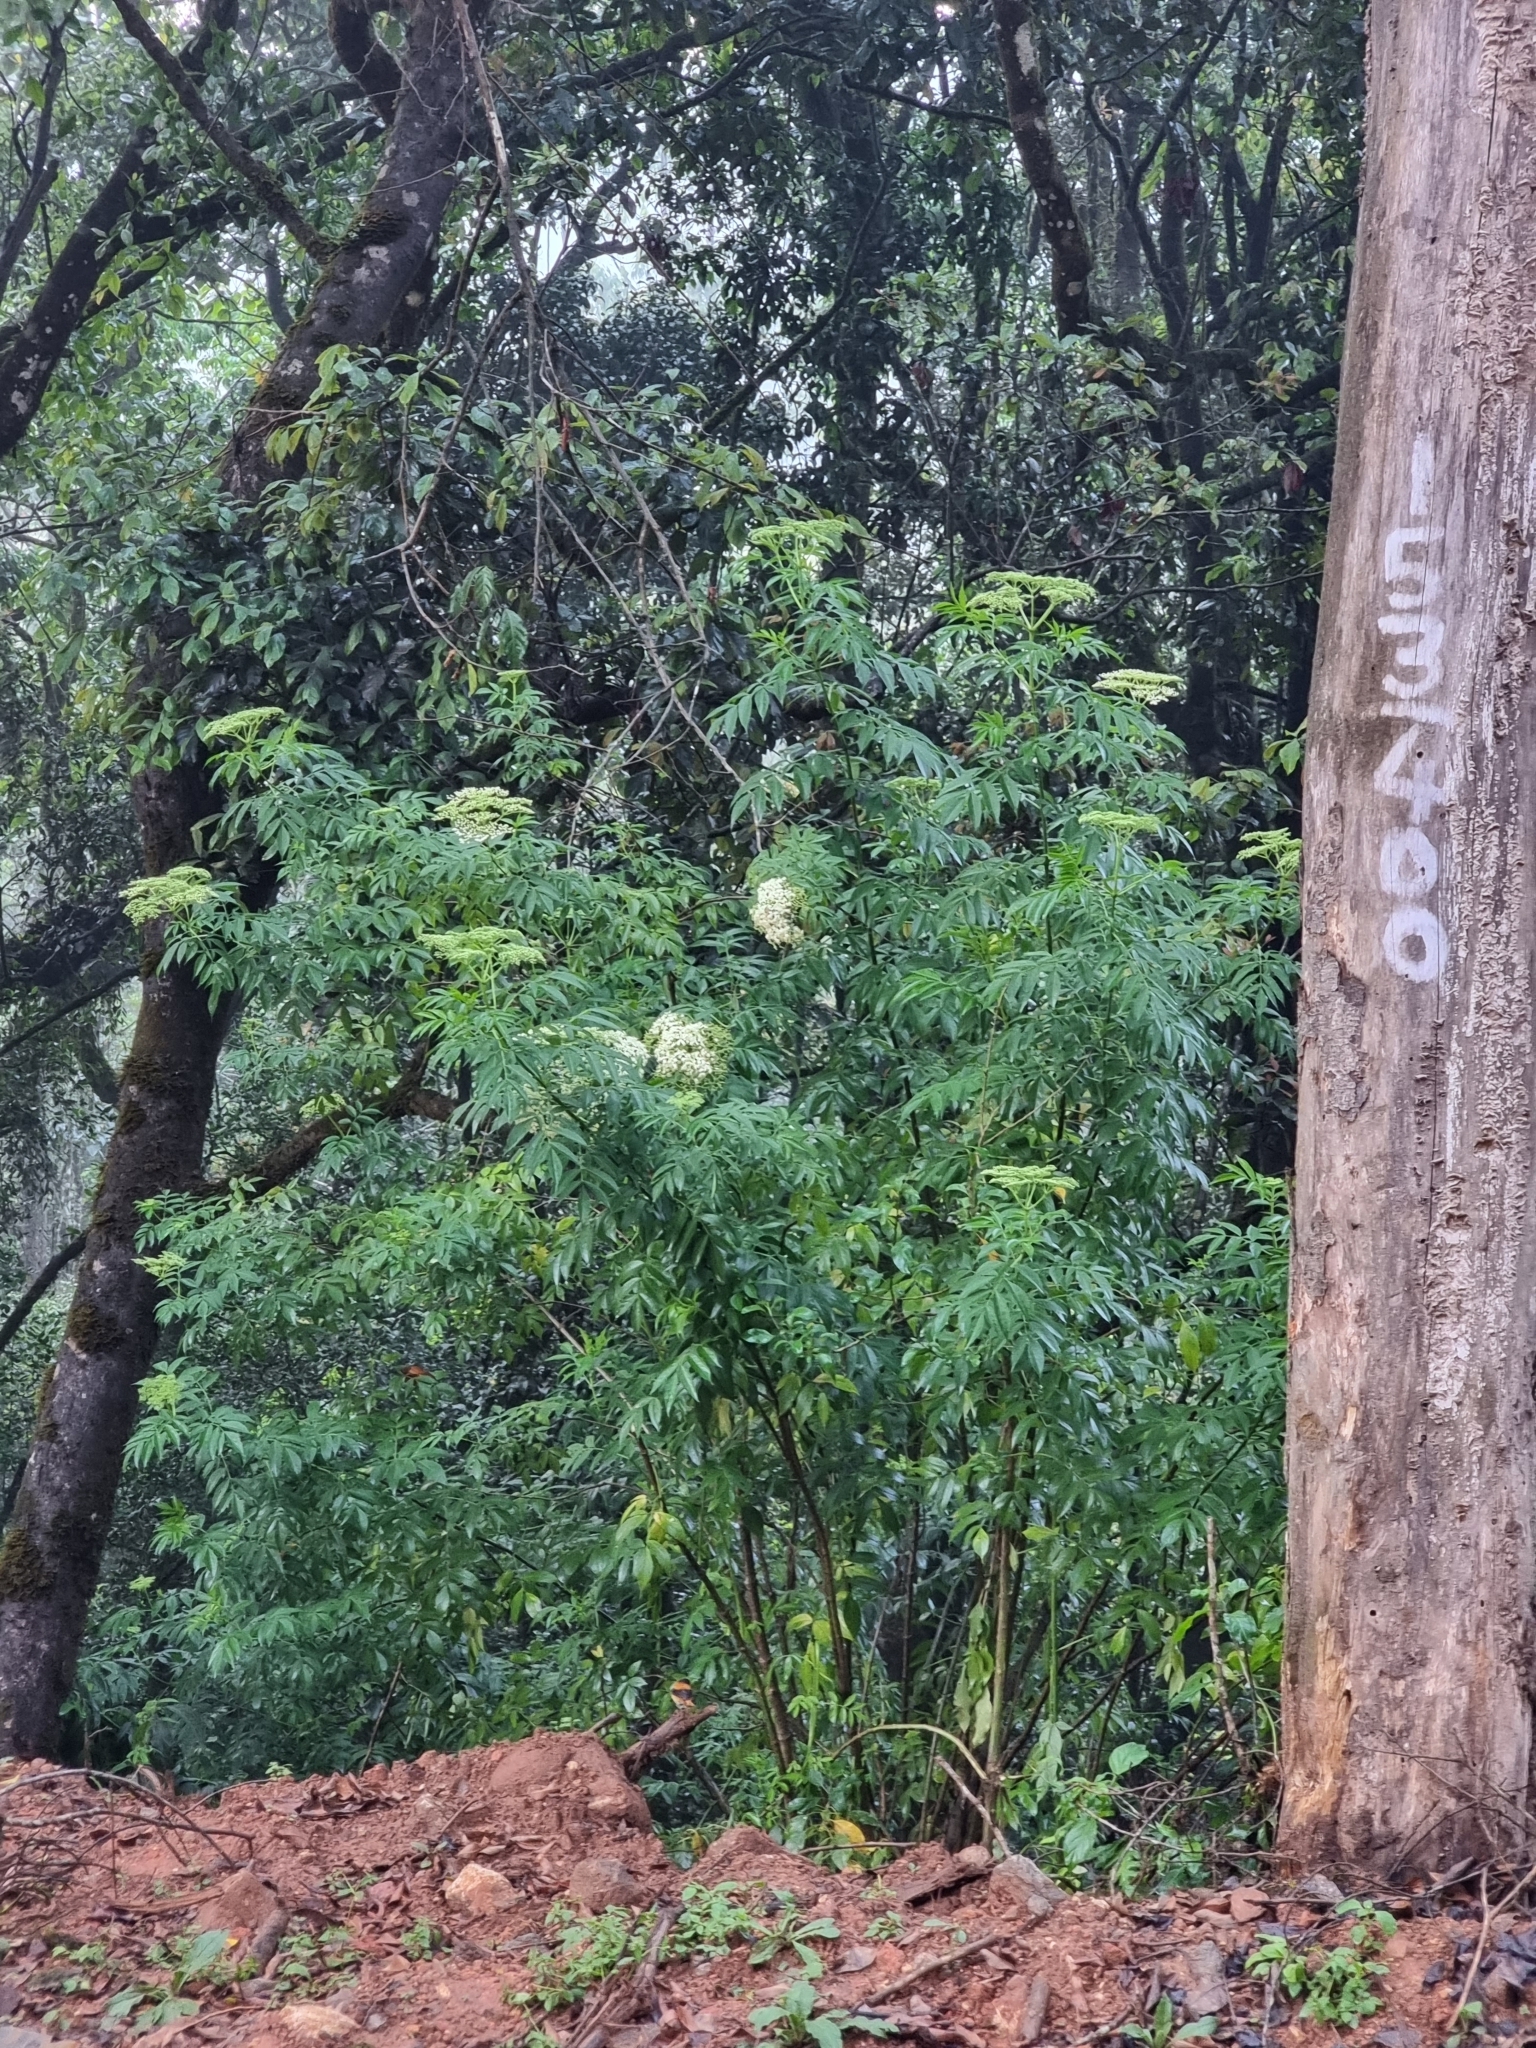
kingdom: Plantae
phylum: Tracheophyta
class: Magnoliopsida
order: Dipsacales
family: Viburnaceae
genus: Sambucus
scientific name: Sambucus canadensis
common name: American elder
